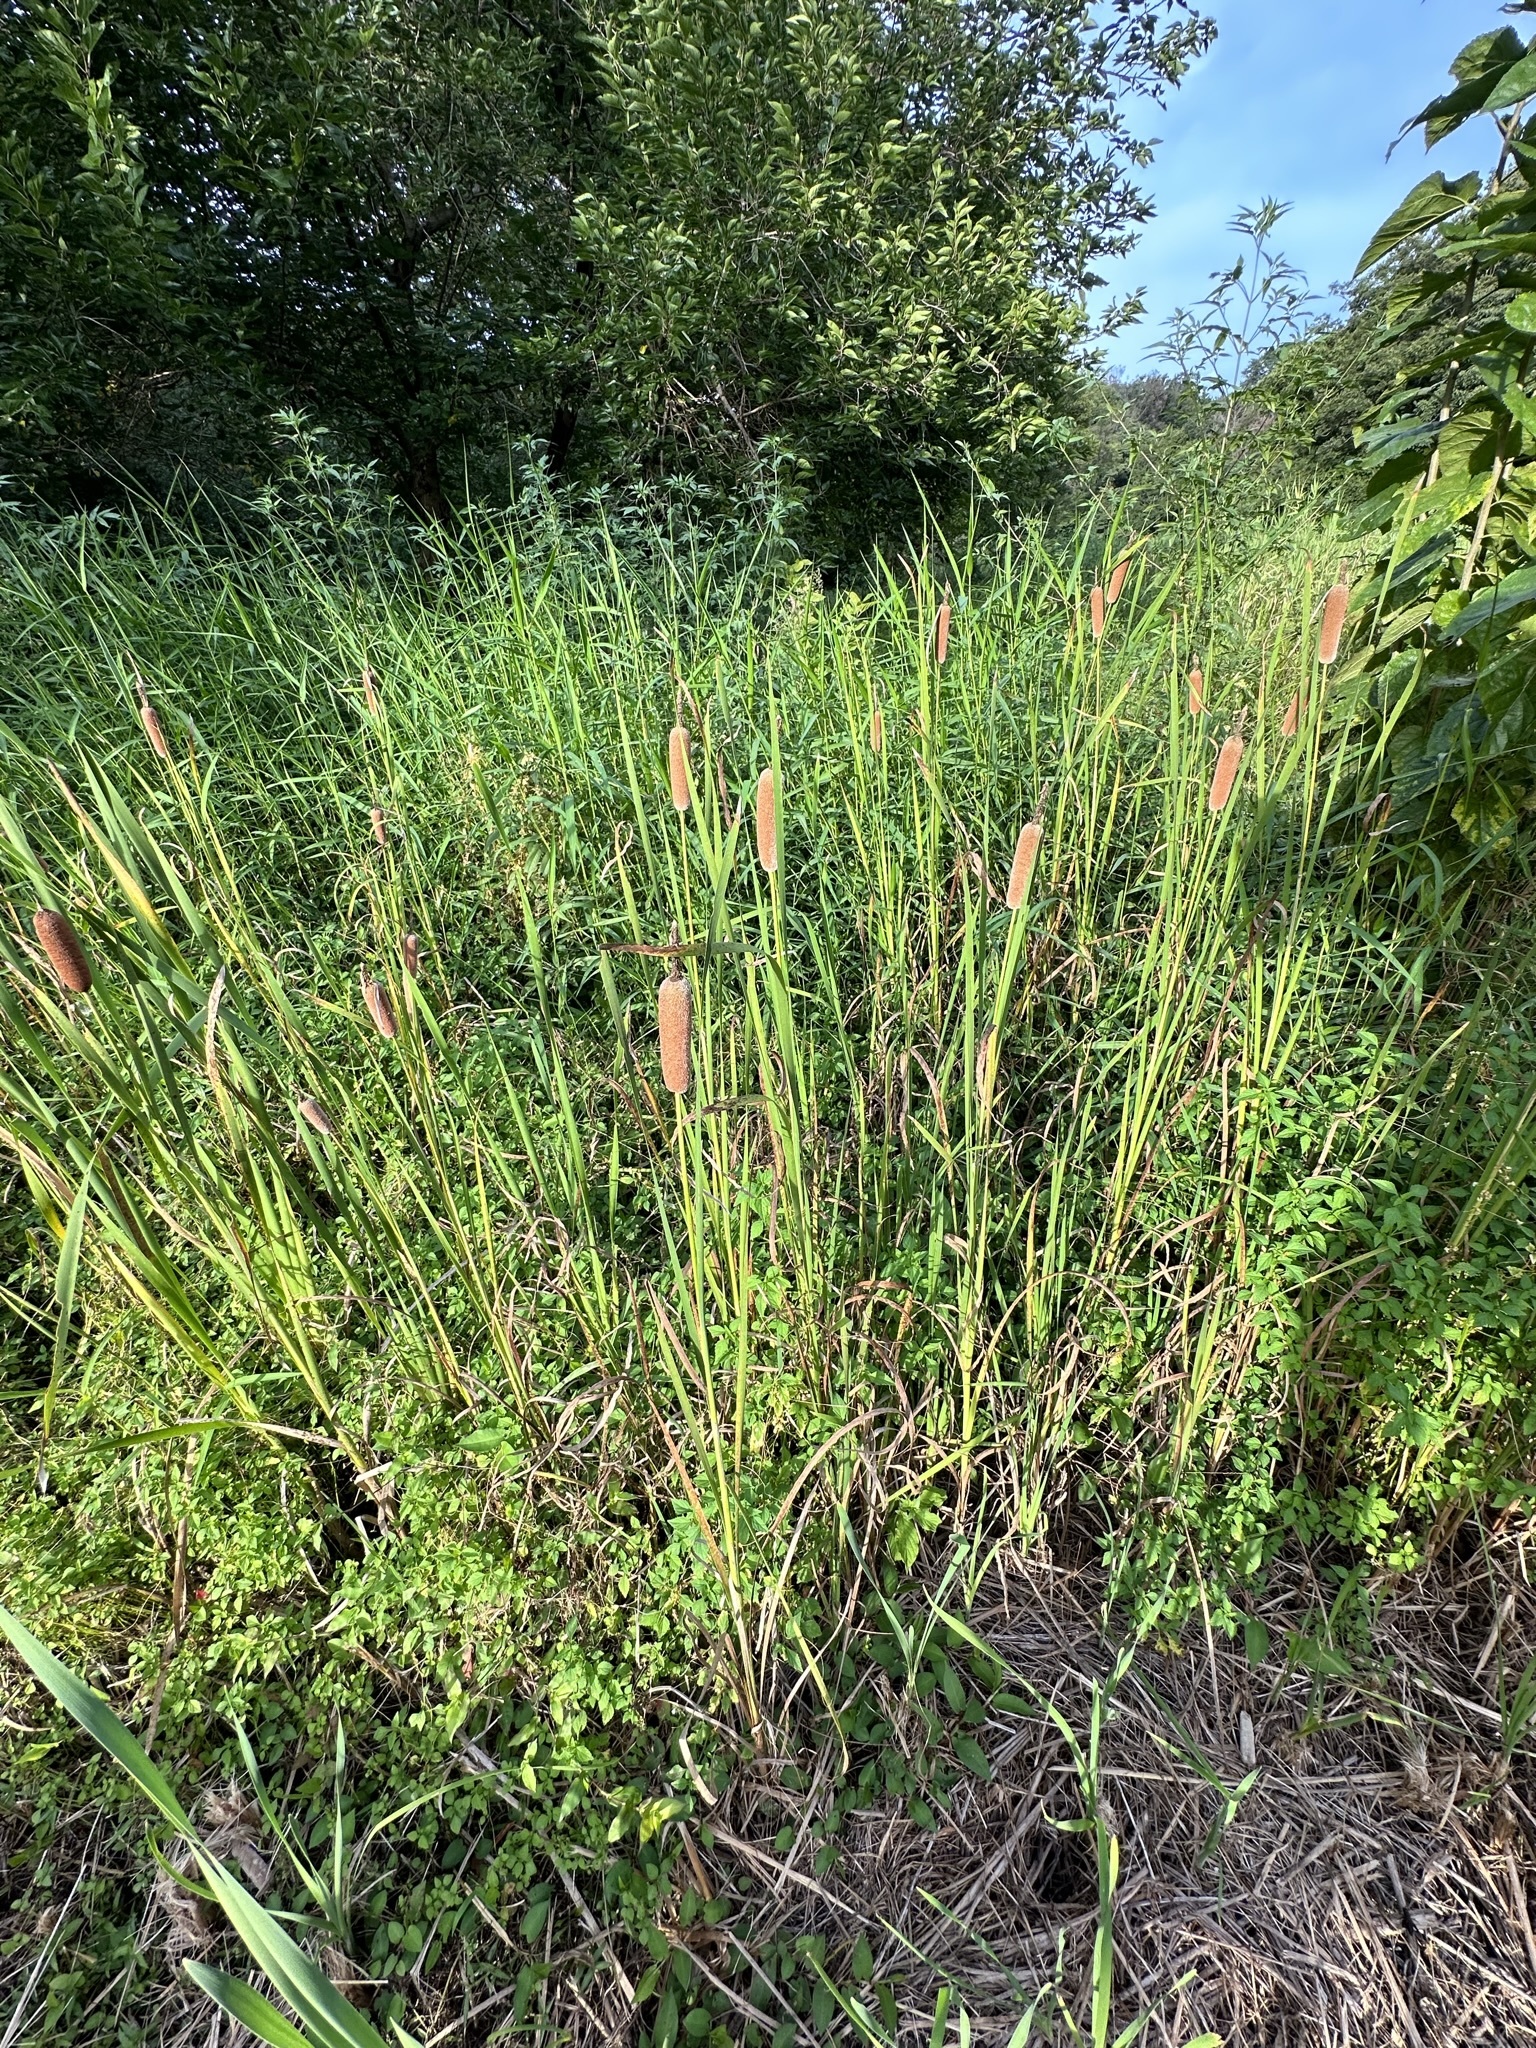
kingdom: Plantae
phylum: Tracheophyta
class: Liliopsida
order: Poales
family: Typhaceae
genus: Typha
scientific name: Typha orientalis
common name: Bullrush
